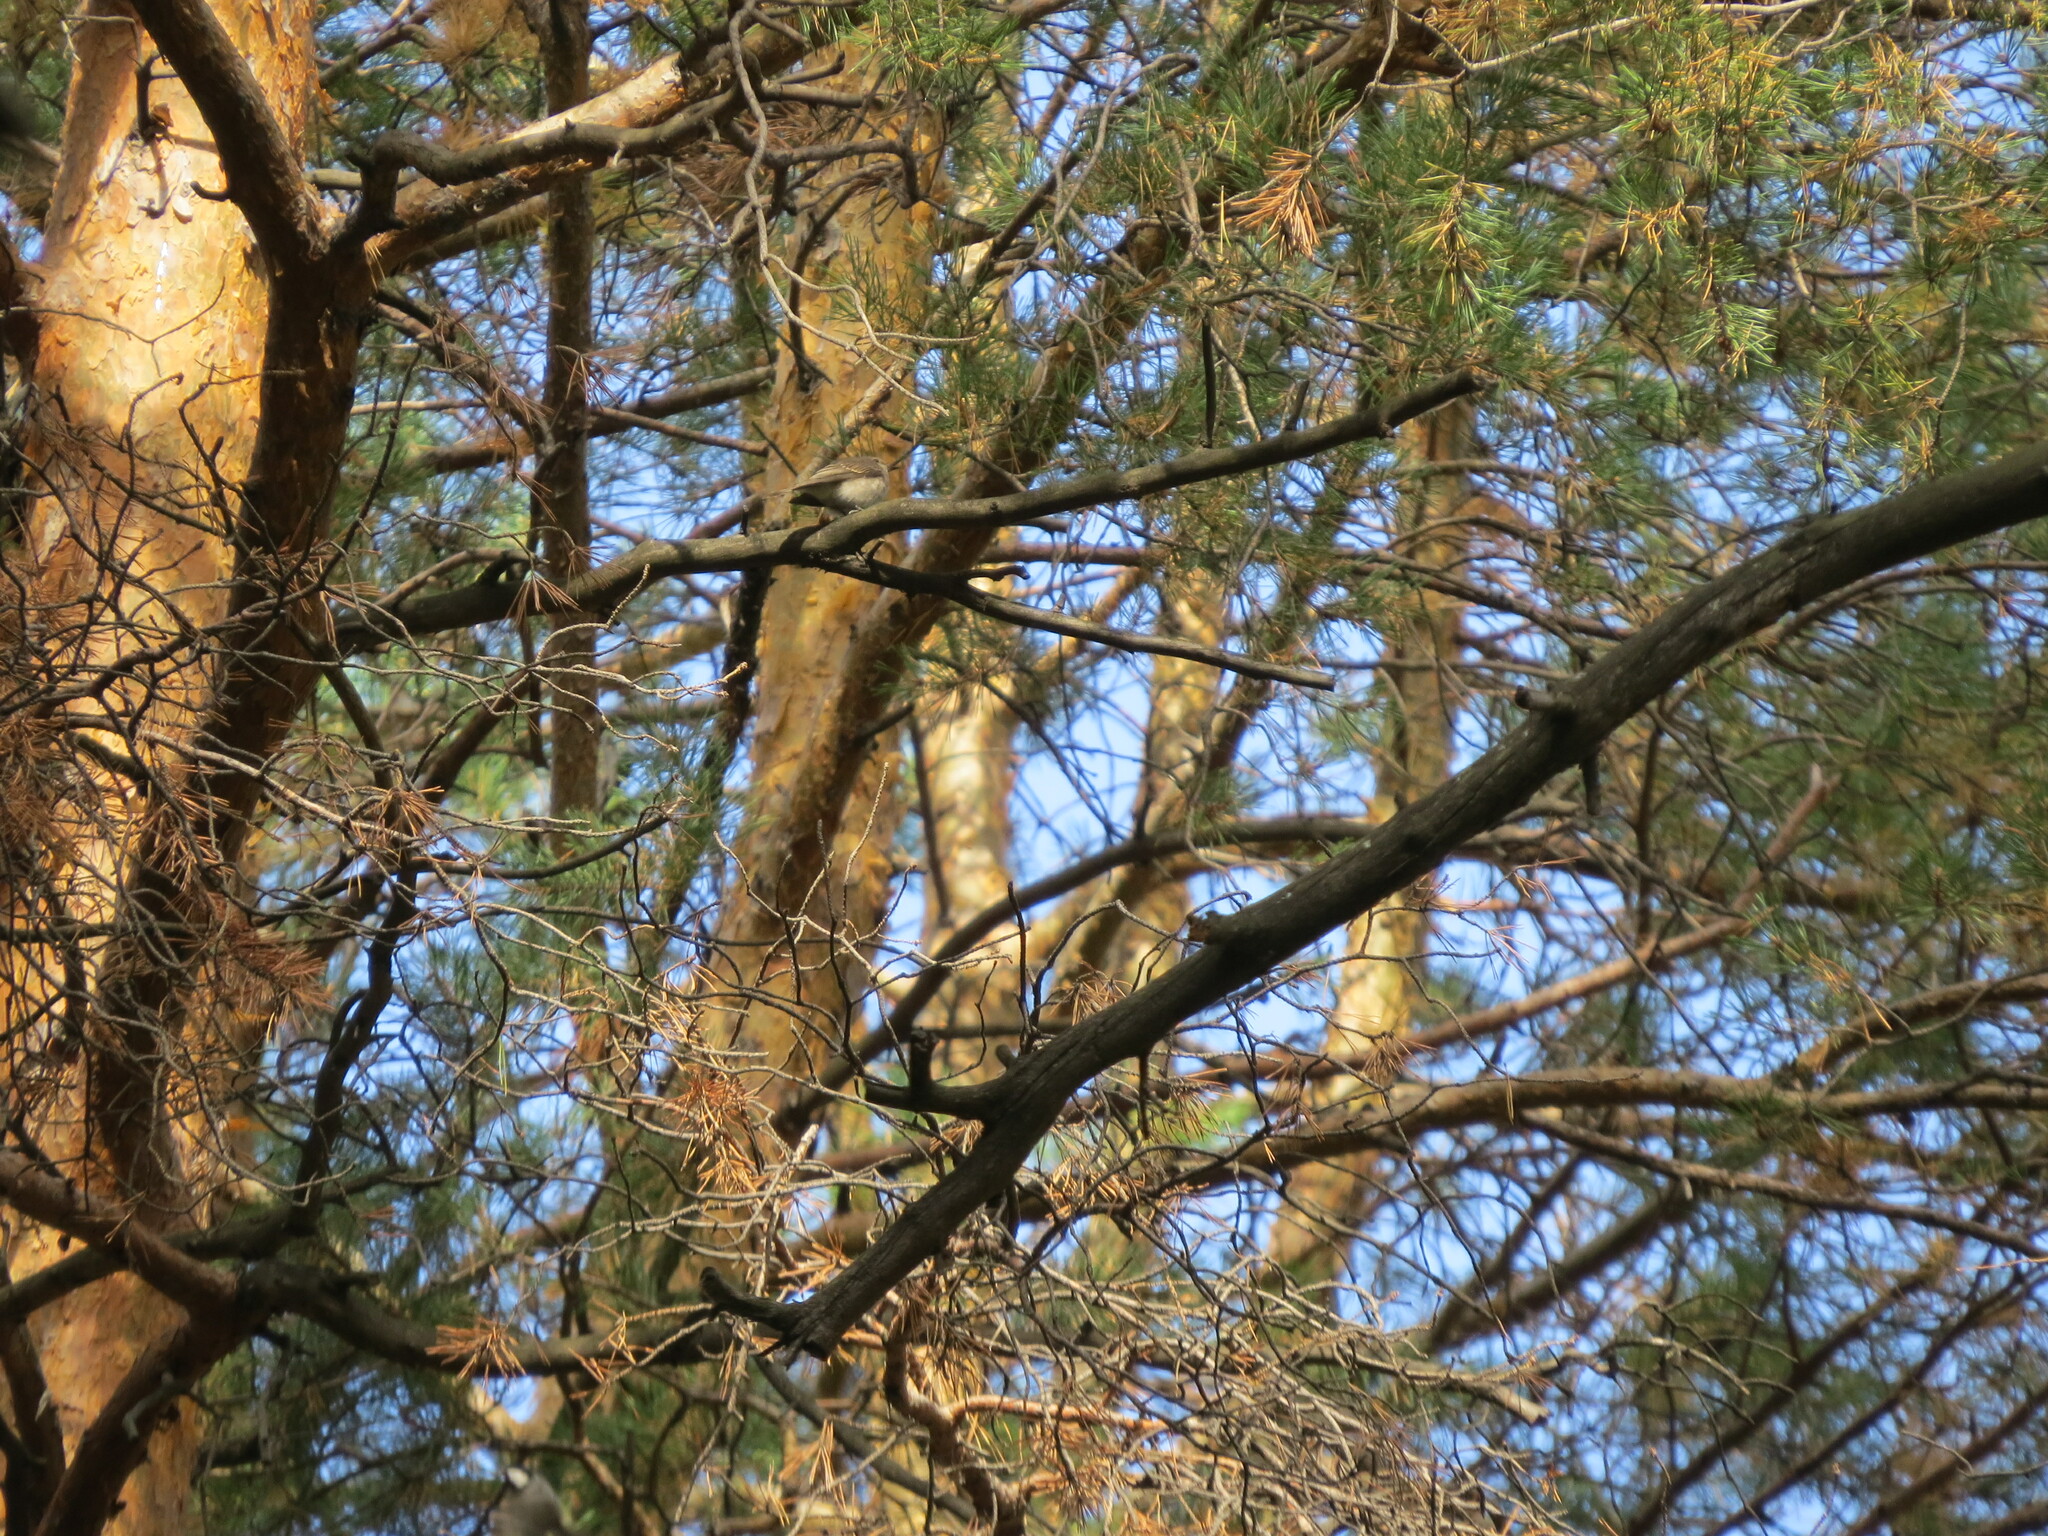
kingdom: Animalia
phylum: Chordata
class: Aves
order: Passeriformes
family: Muscicapidae
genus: Muscicapa
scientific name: Muscicapa striata
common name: Spotted flycatcher
